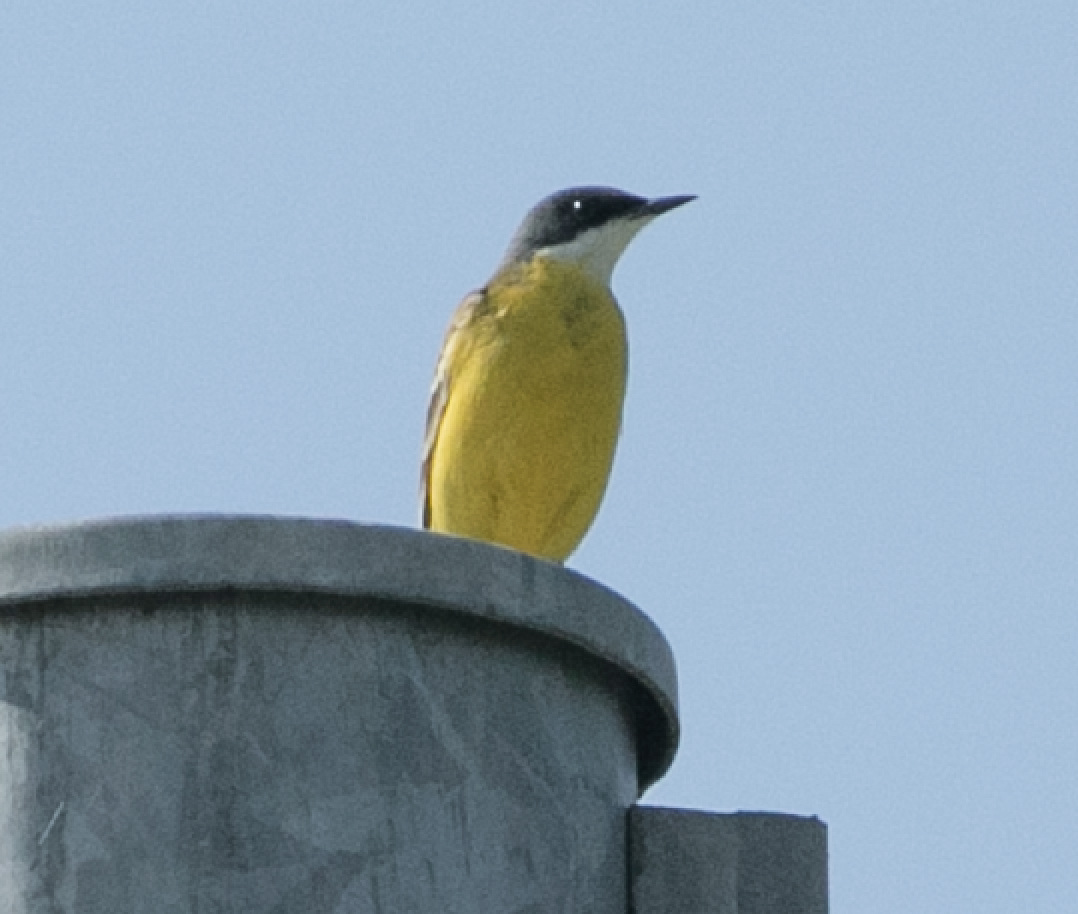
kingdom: Animalia
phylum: Chordata
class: Aves
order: Passeriformes
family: Motacillidae
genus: Motacilla
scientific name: Motacilla flava
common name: Western yellow wagtail
